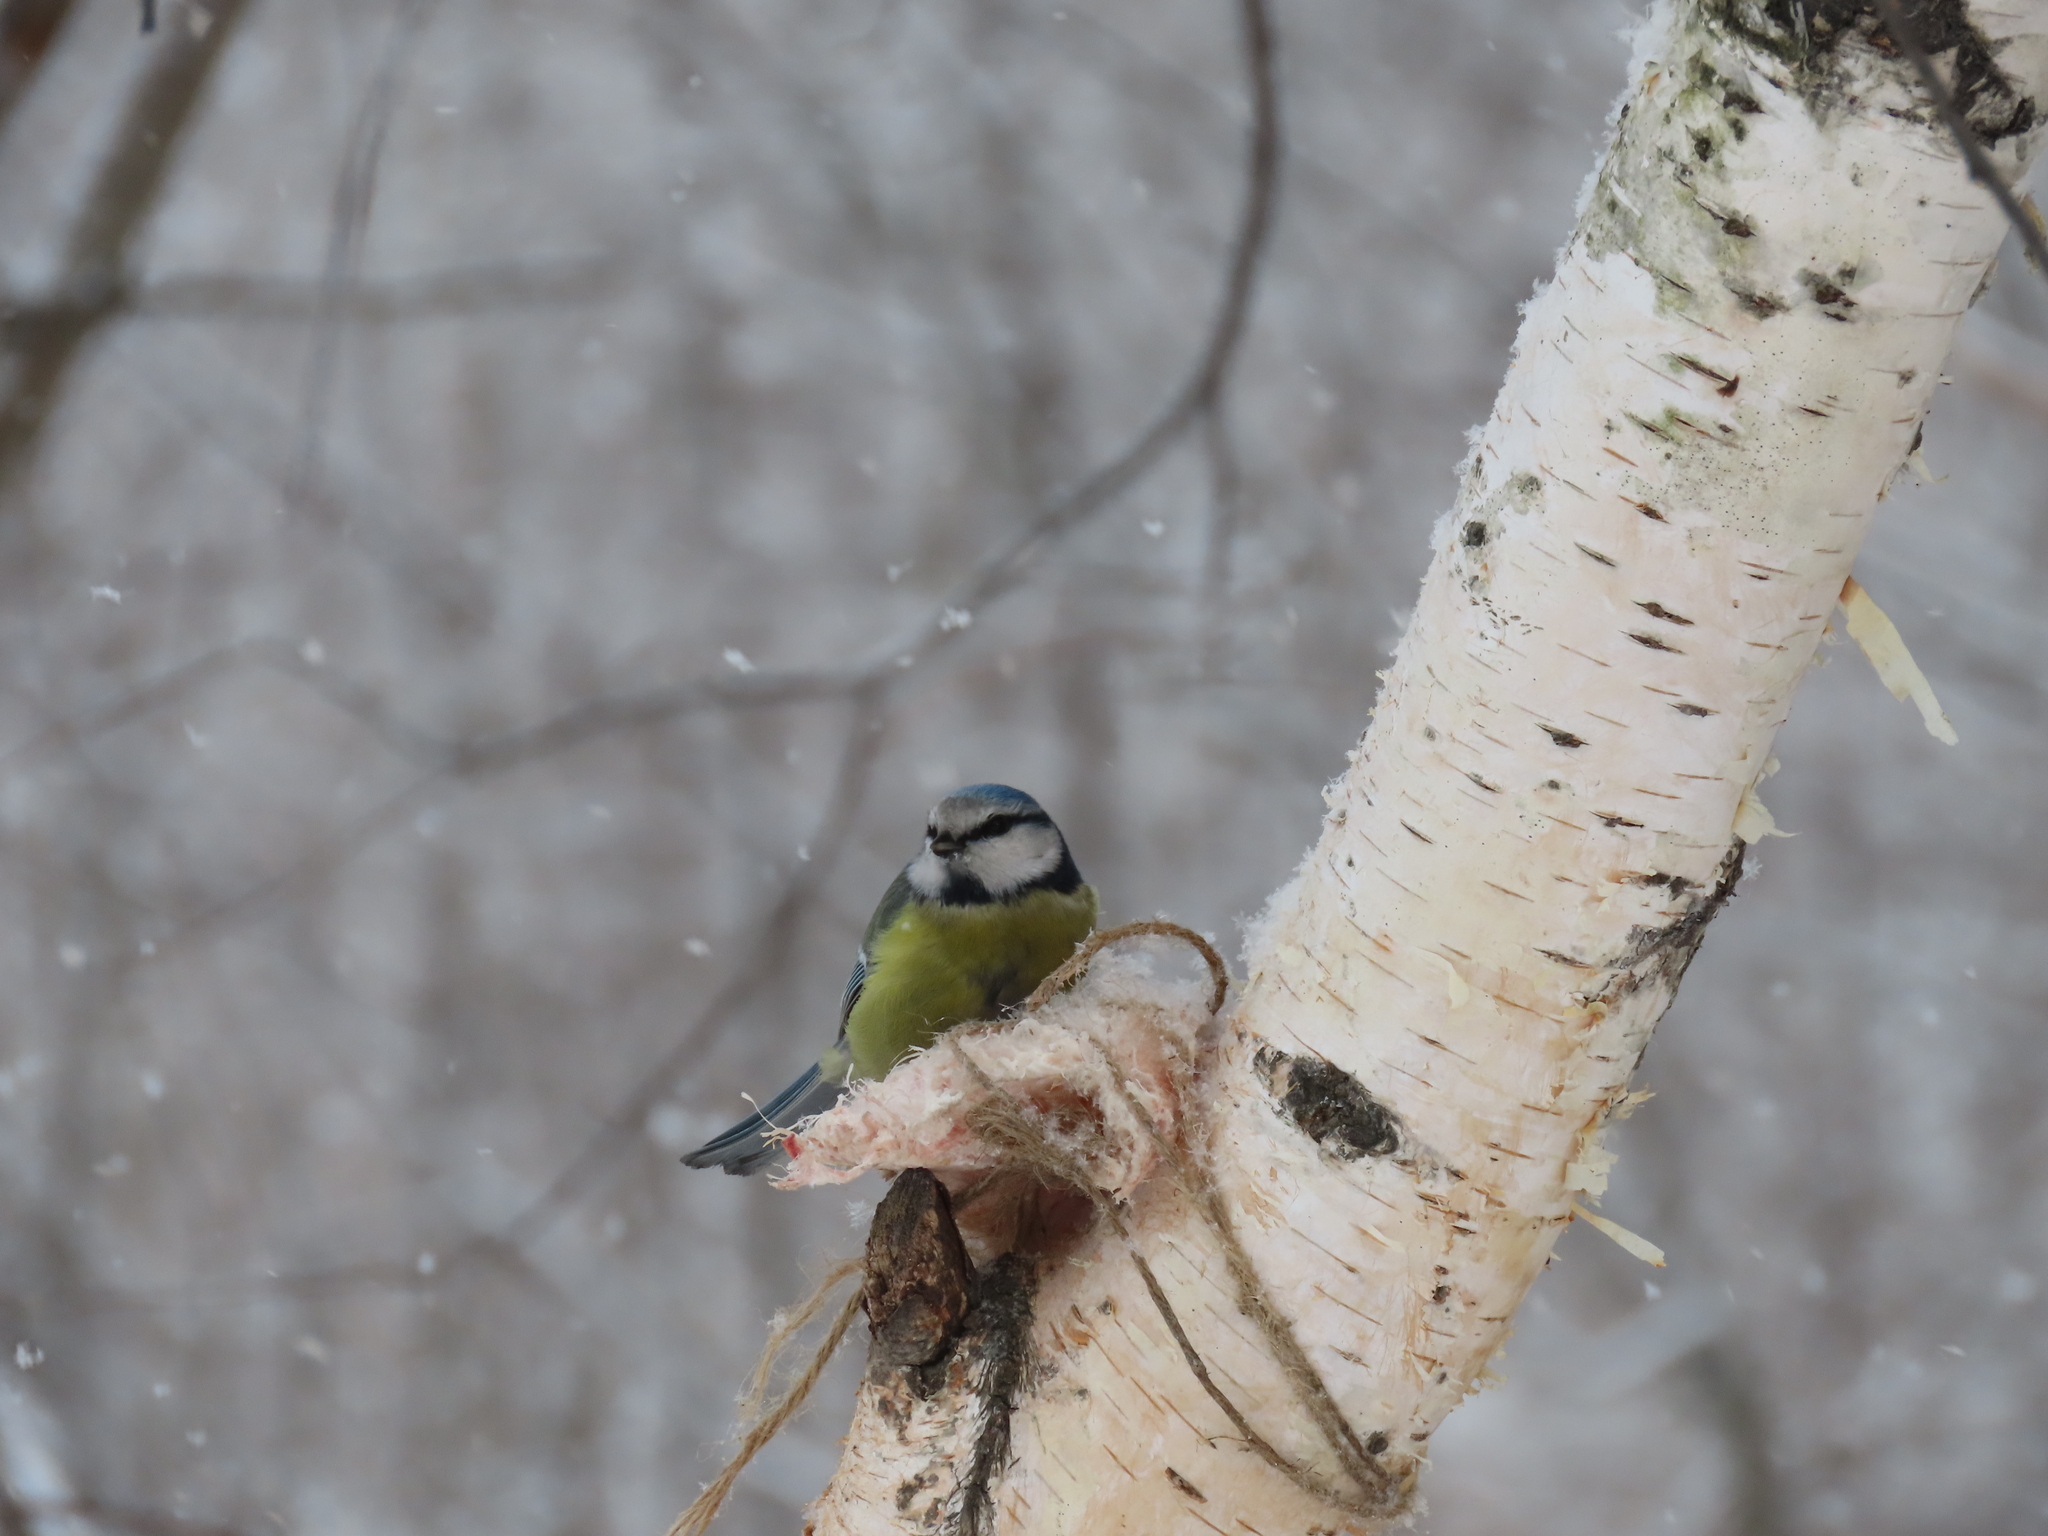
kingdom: Animalia
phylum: Chordata
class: Aves
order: Passeriformes
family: Paridae
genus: Cyanistes
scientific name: Cyanistes caeruleus
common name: Eurasian blue tit
